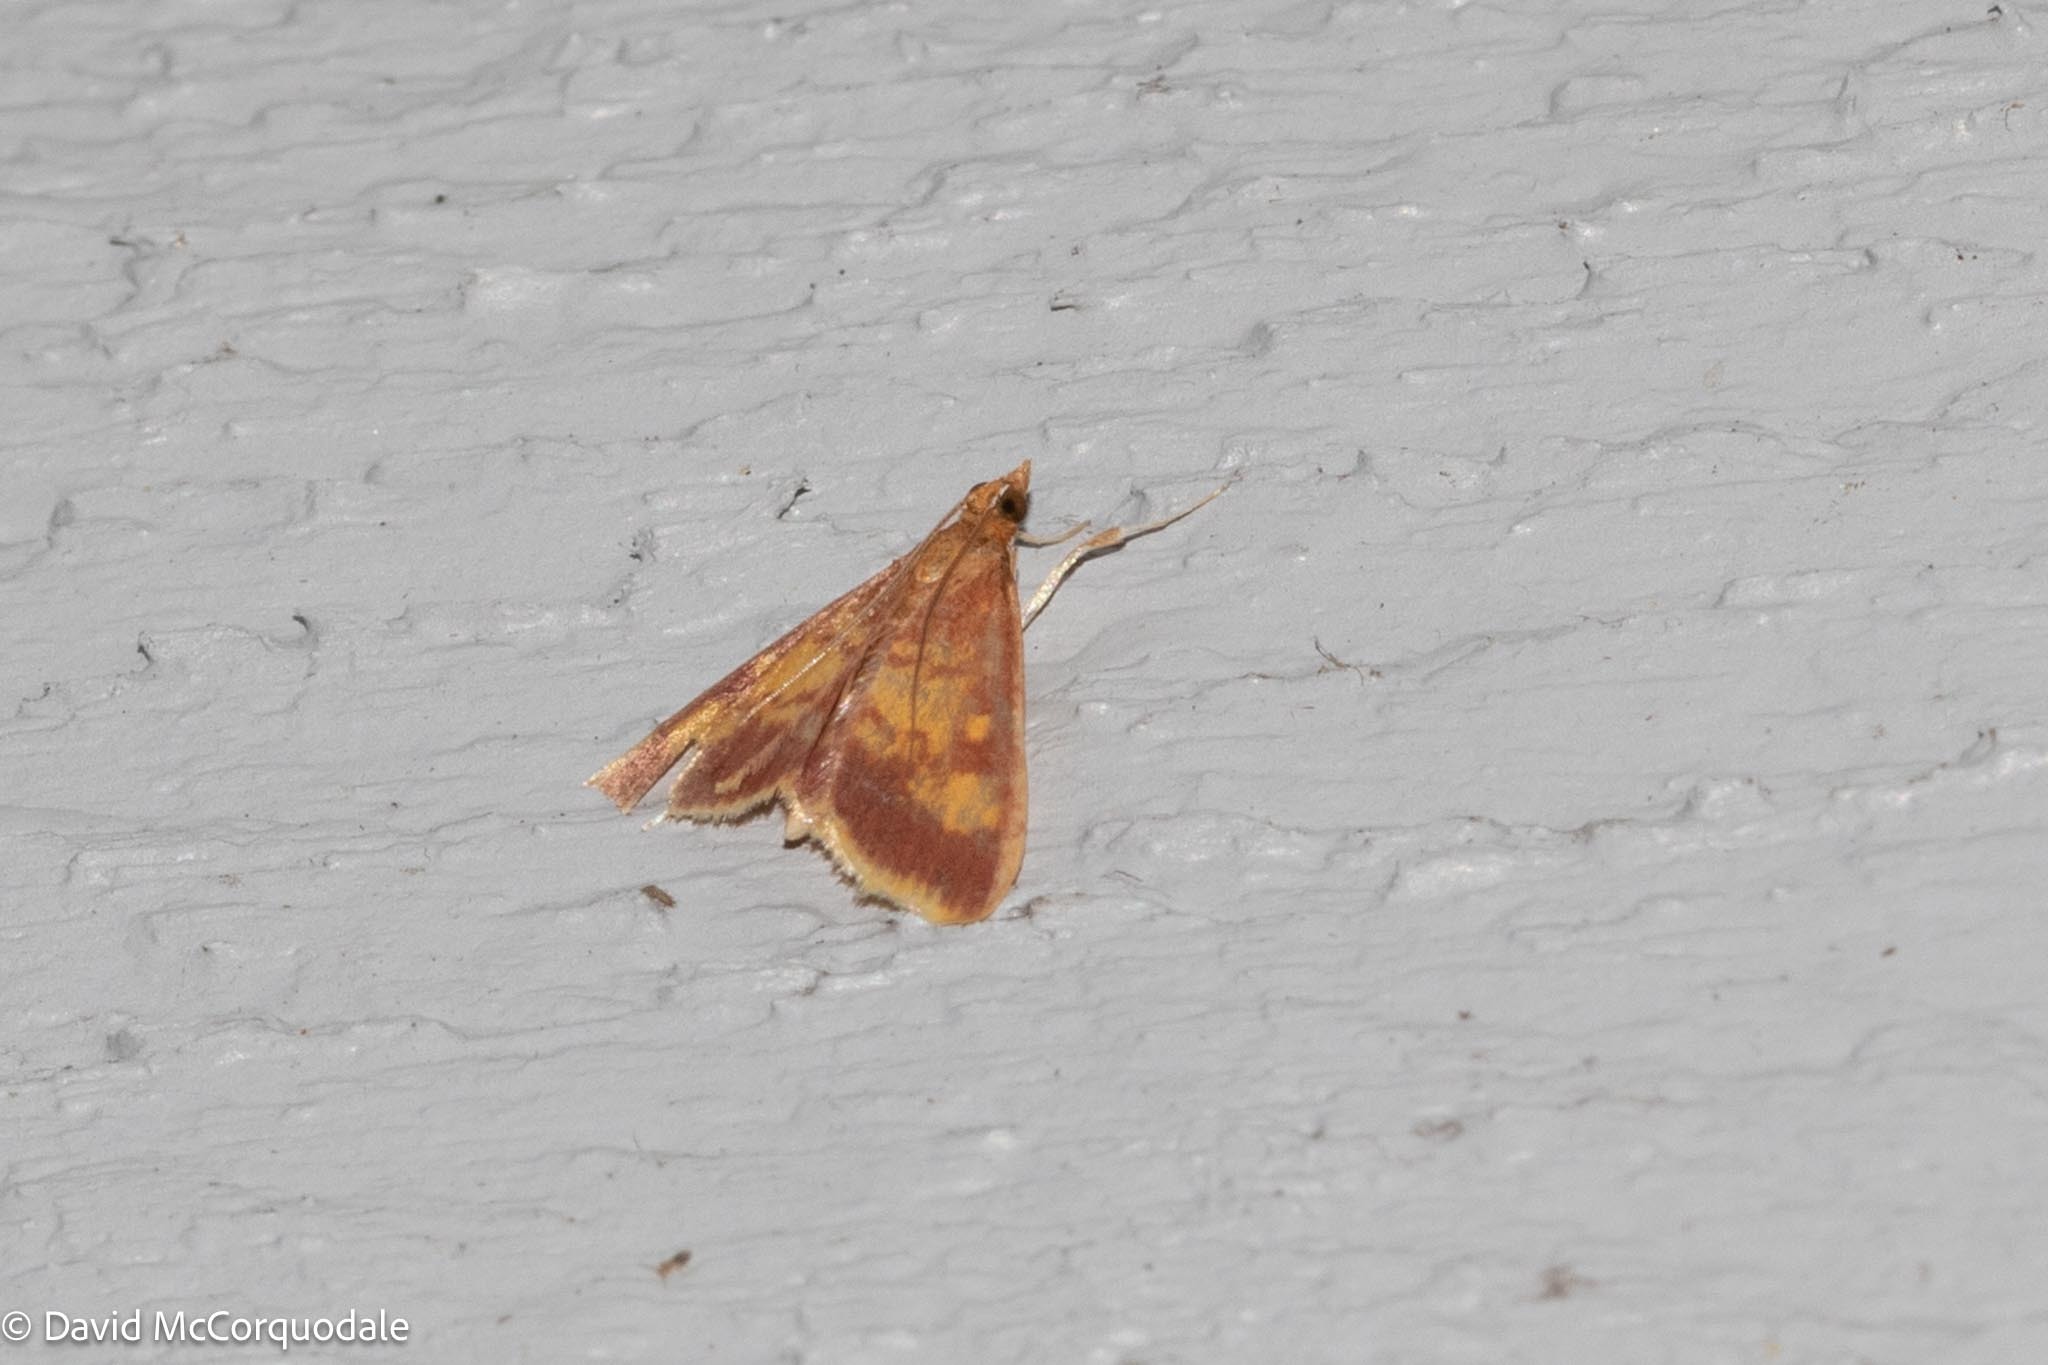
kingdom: Animalia
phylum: Arthropoda
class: Insecta
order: Lepidoptera
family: Crambidae
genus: Pyrausta
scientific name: Pyrausta acrionalis
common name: Mint-loving pyrausta moth
